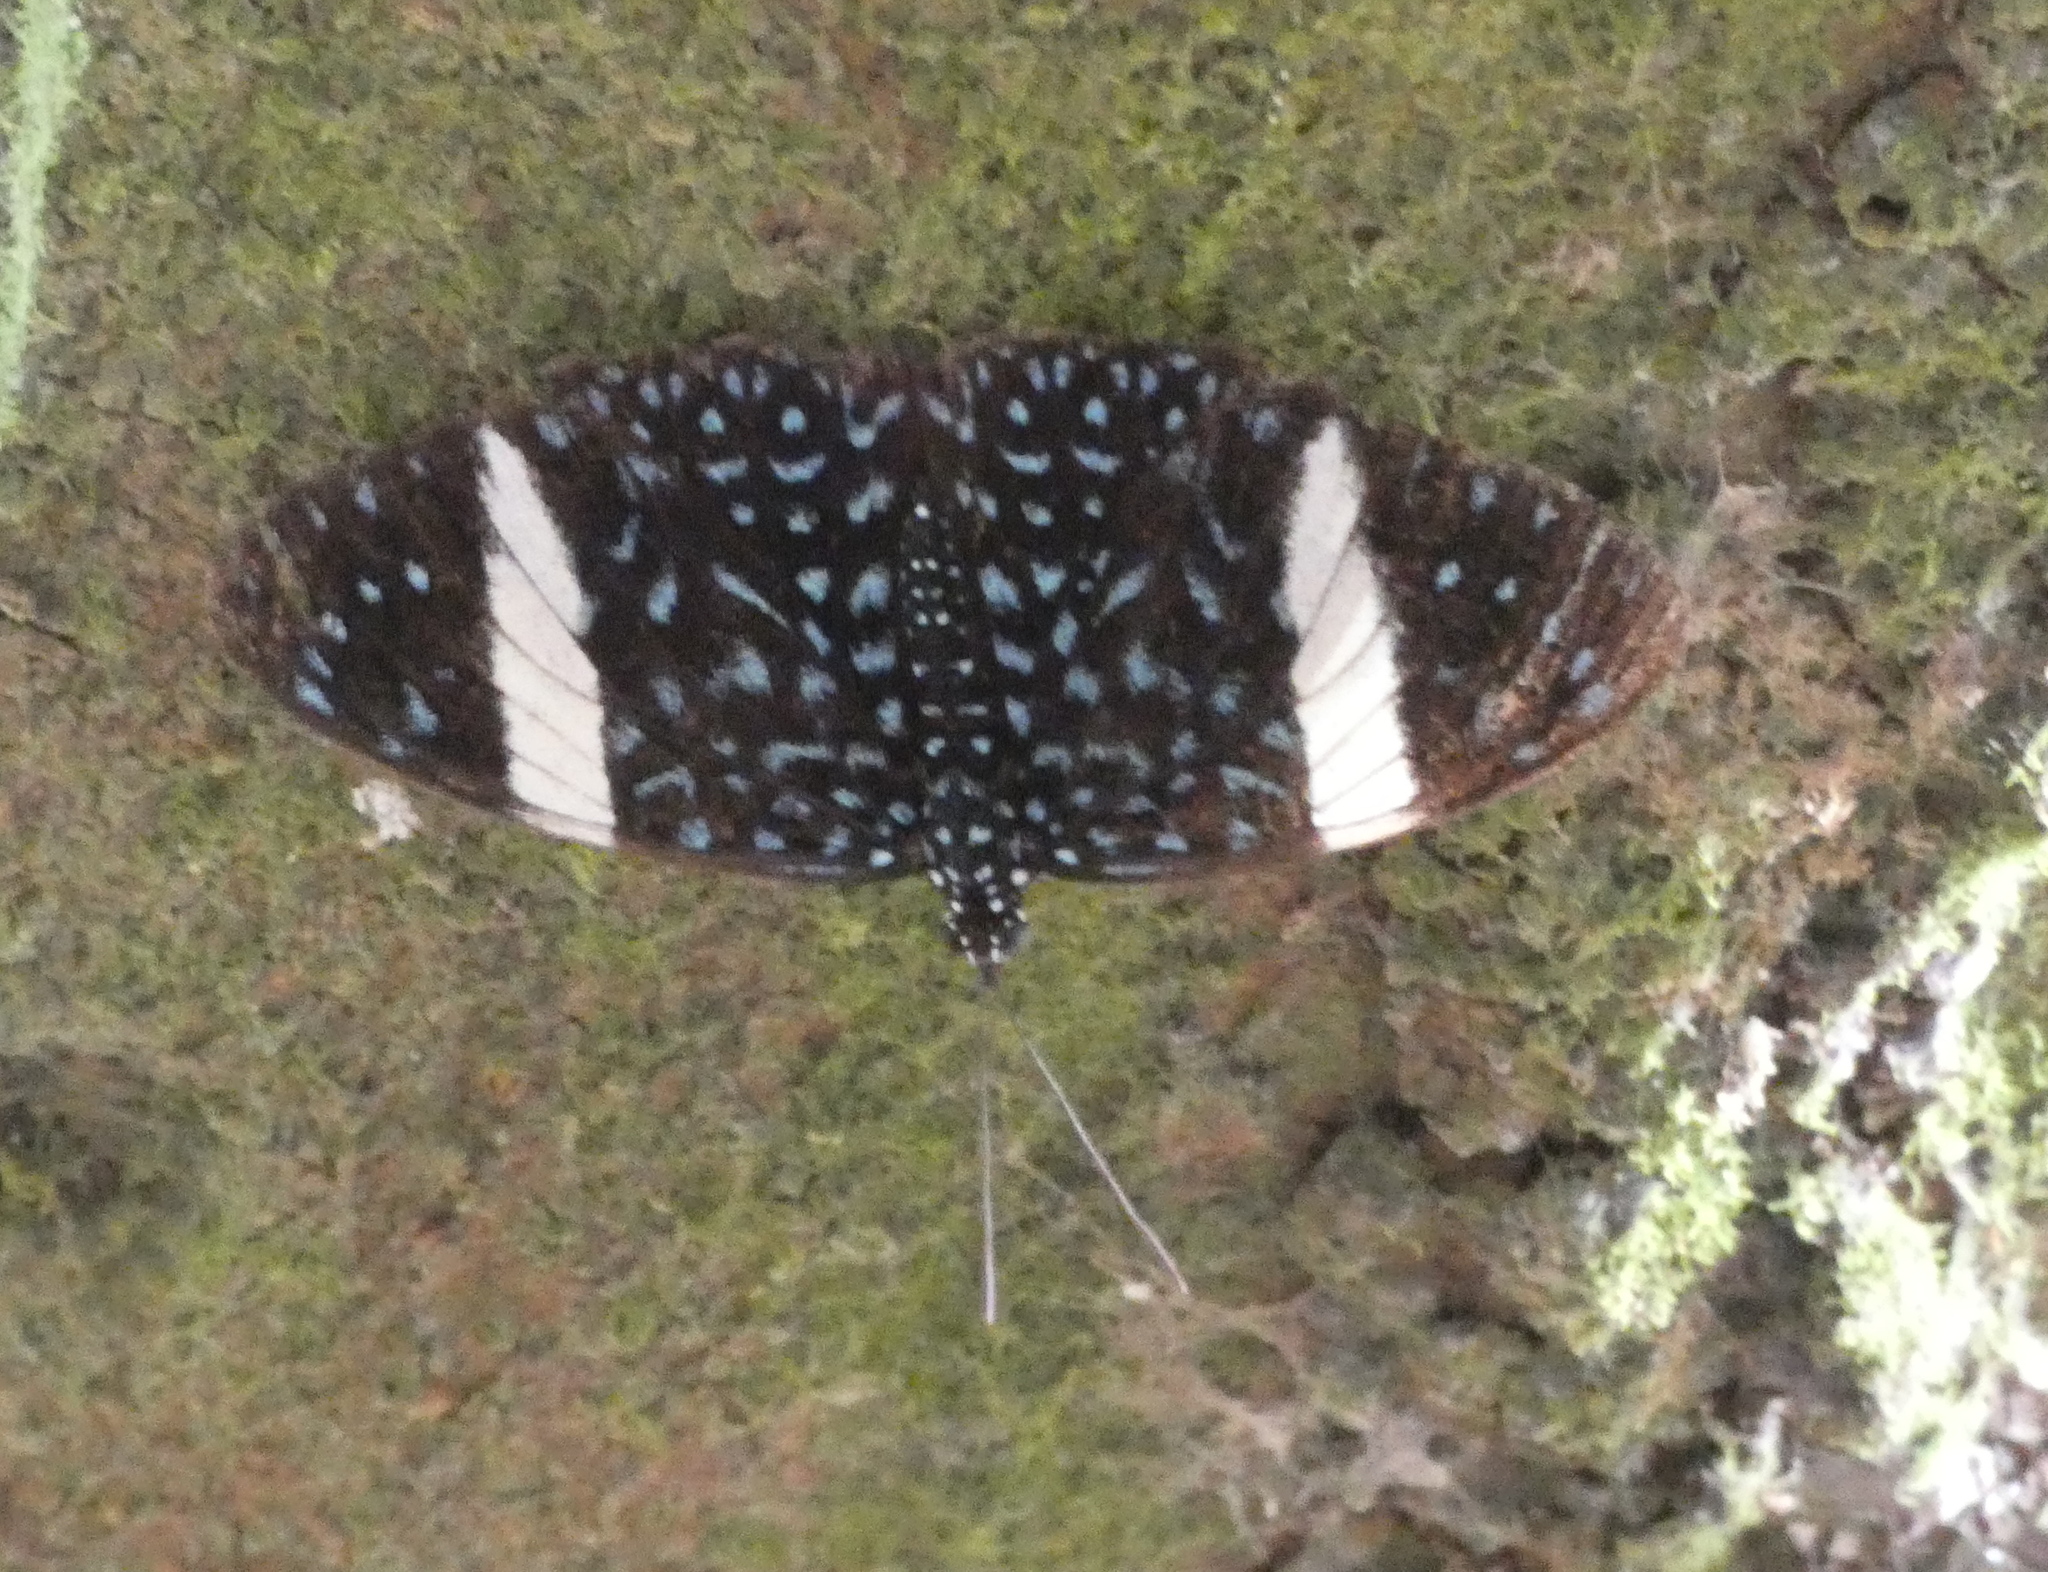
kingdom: Animalia
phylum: Arthropoda
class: Insecta
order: Lepidoptera
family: Nymphalidae
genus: Hamadryas
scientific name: Hamadryas laodamia
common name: Starry night cracker
